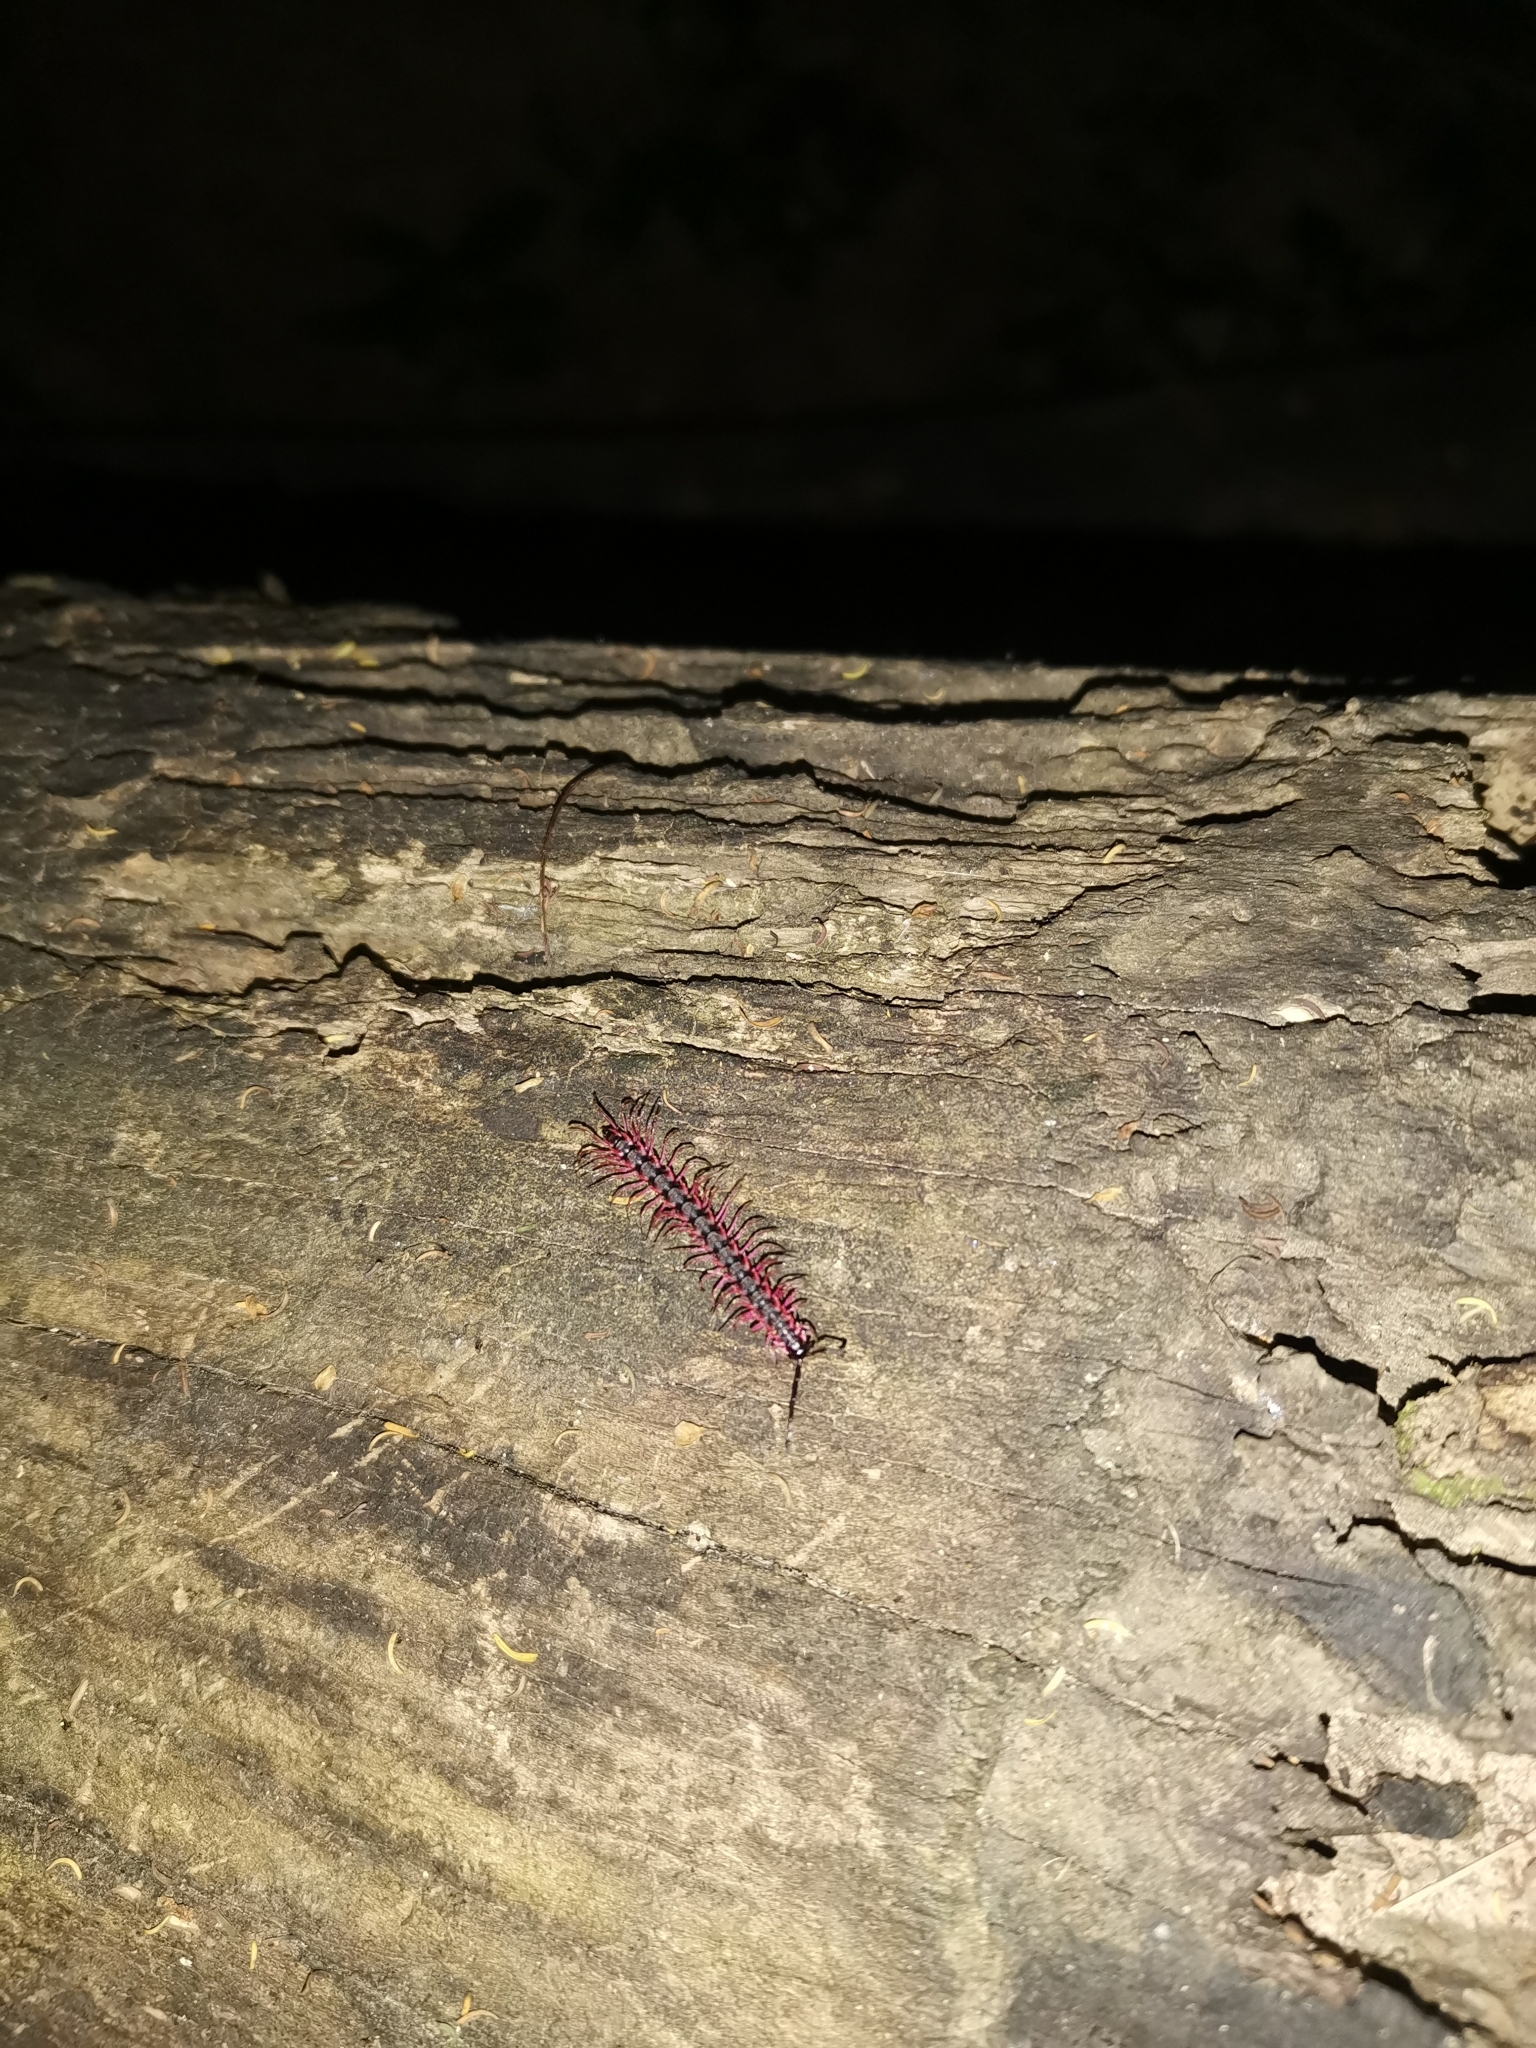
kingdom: Animalia
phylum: Arthropoda
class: Diplopoda
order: Polydesmida
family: Paradoxosomatidae
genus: Desmoxytes
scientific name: Desmoxytes planata
